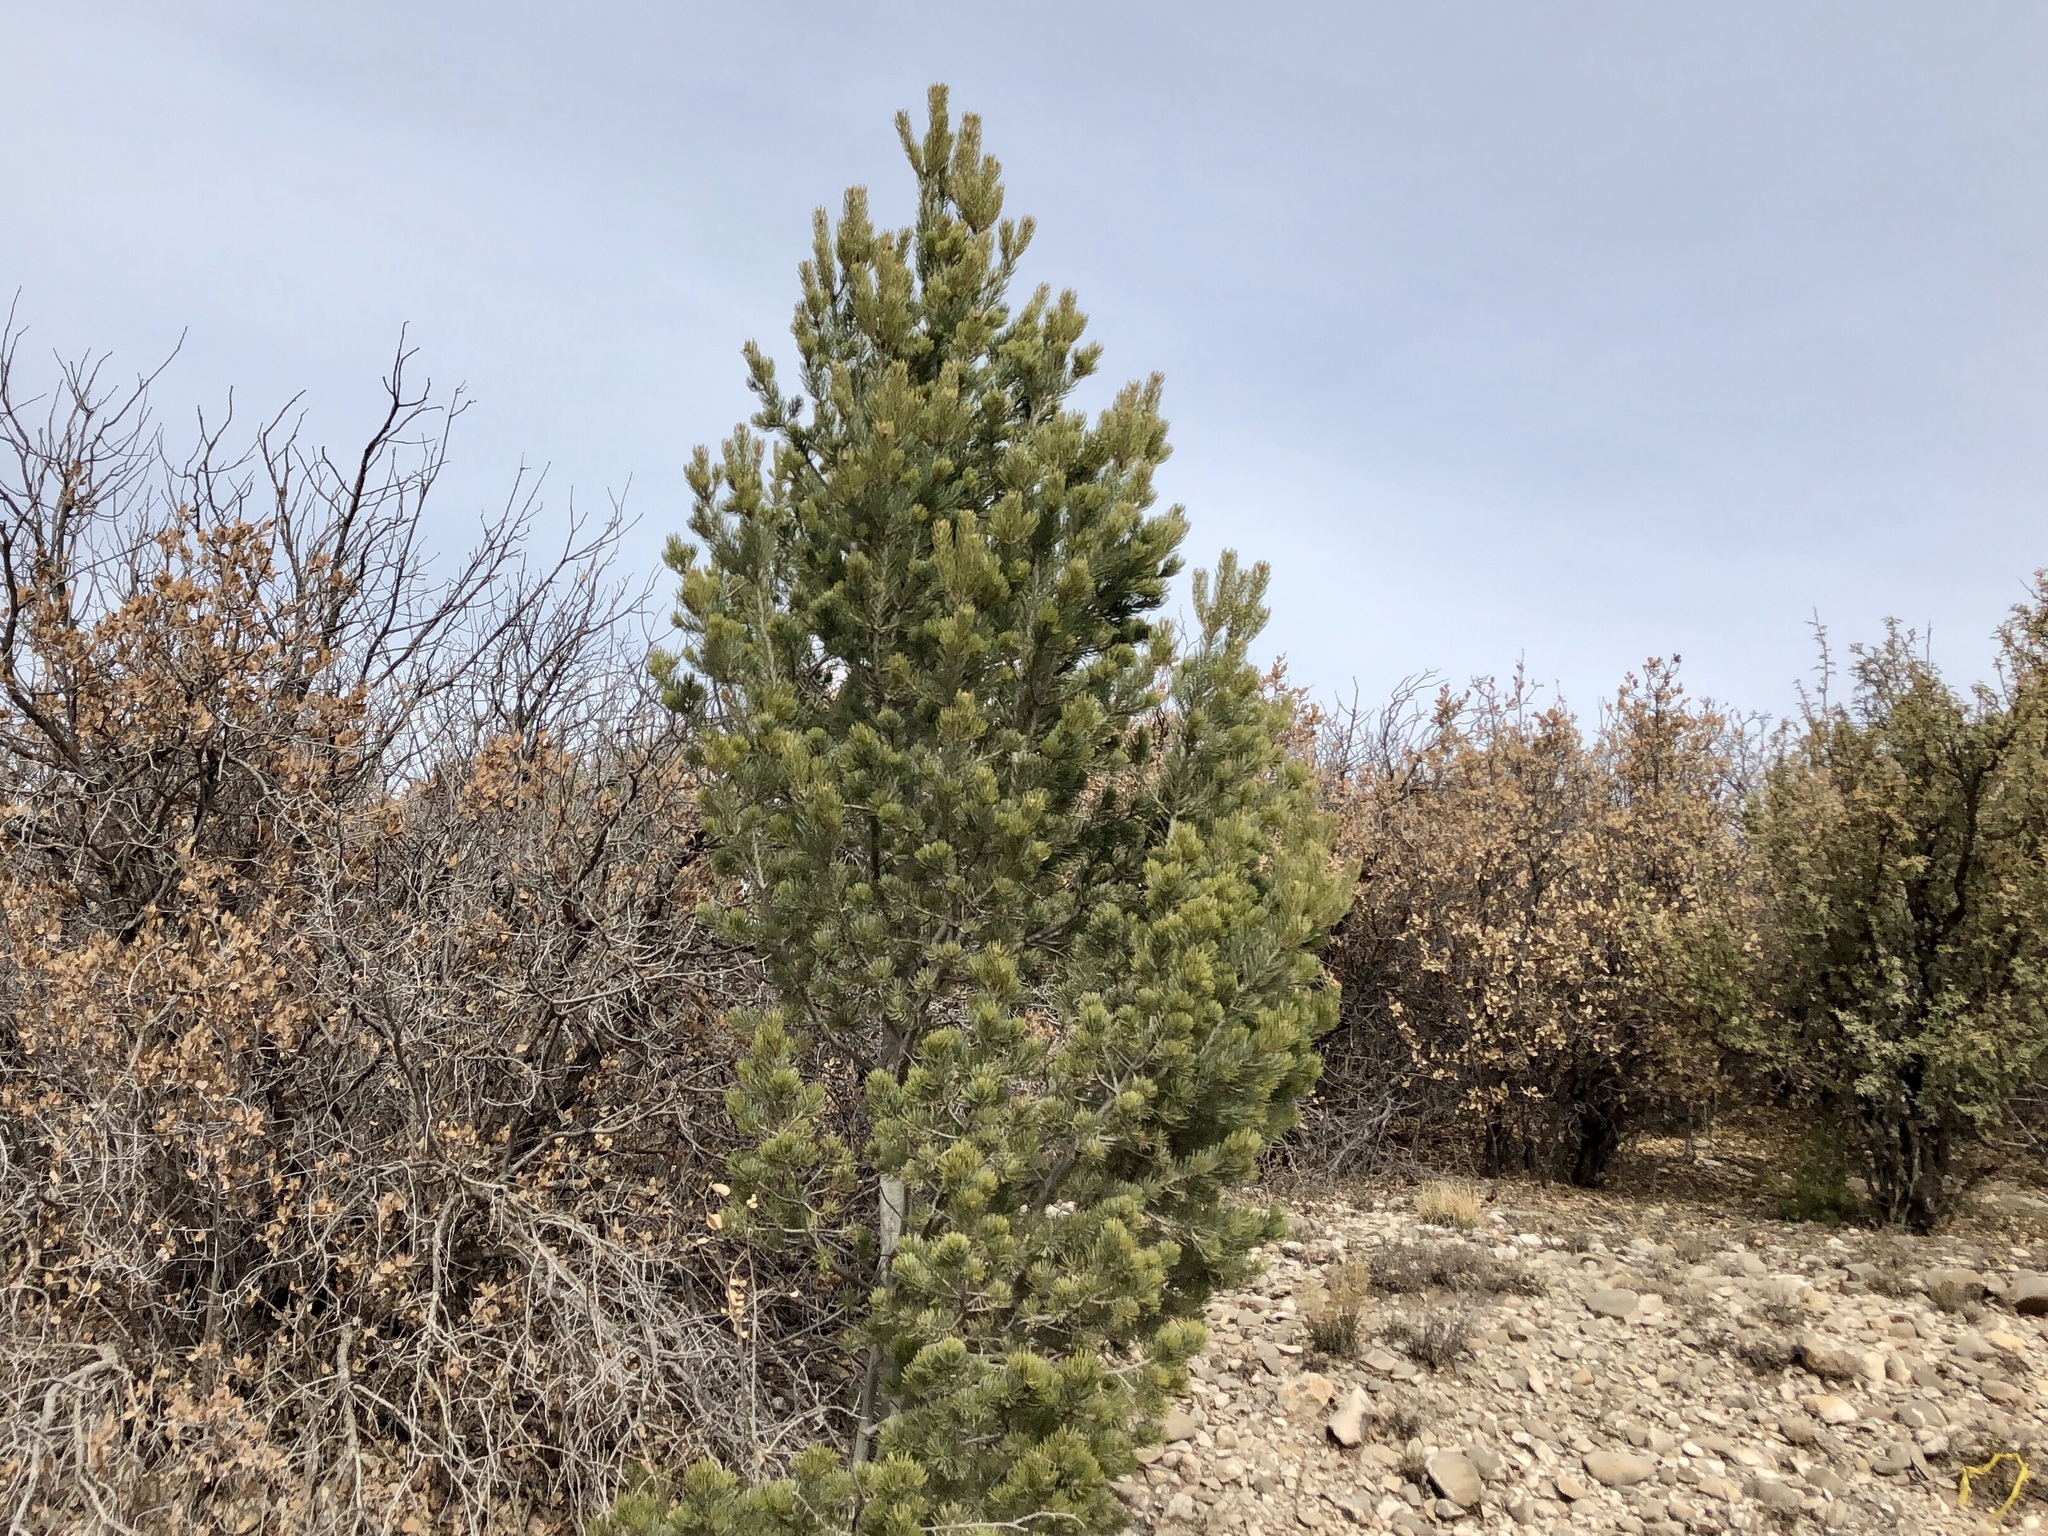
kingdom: Plantae
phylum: Tracheophyta
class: Pinopsida
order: Pinales
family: Pinaceae
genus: Pinus
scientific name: Pinus edulis
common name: Colorado pinyon
